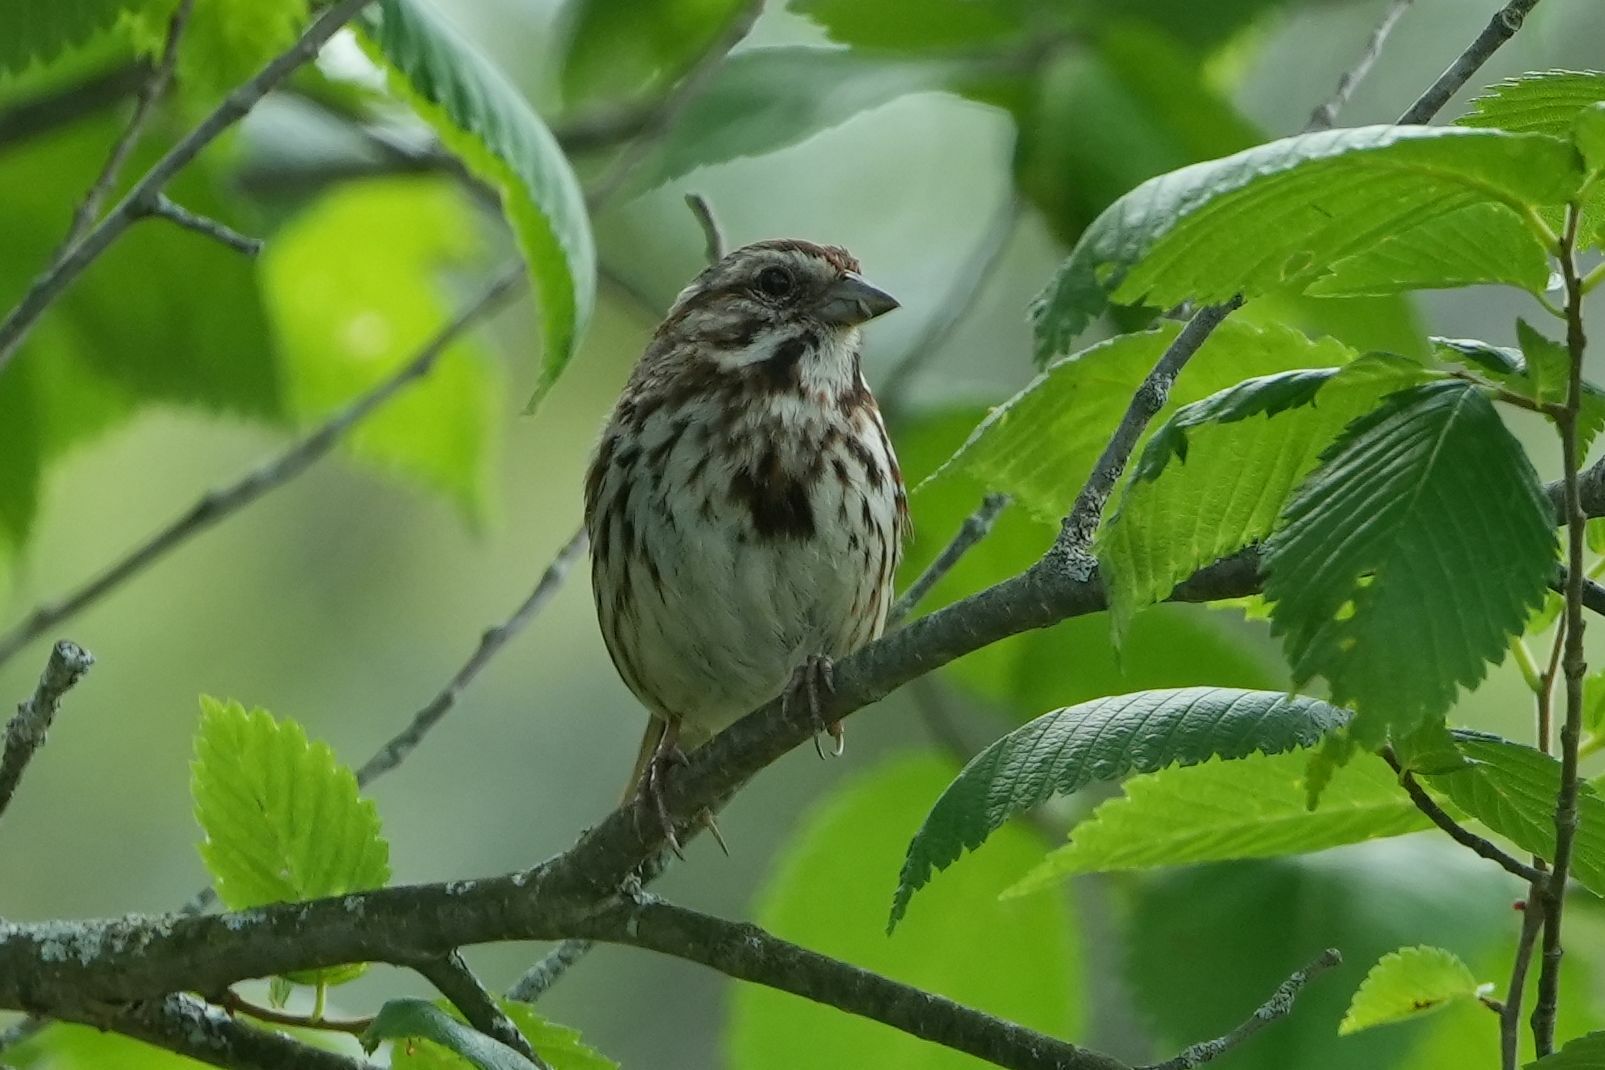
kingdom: Animalia
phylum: Chordata
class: Aves
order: Passeriformes
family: Passerellidae
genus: Melospiza
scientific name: Melospiza melodia
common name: Song sparrow
